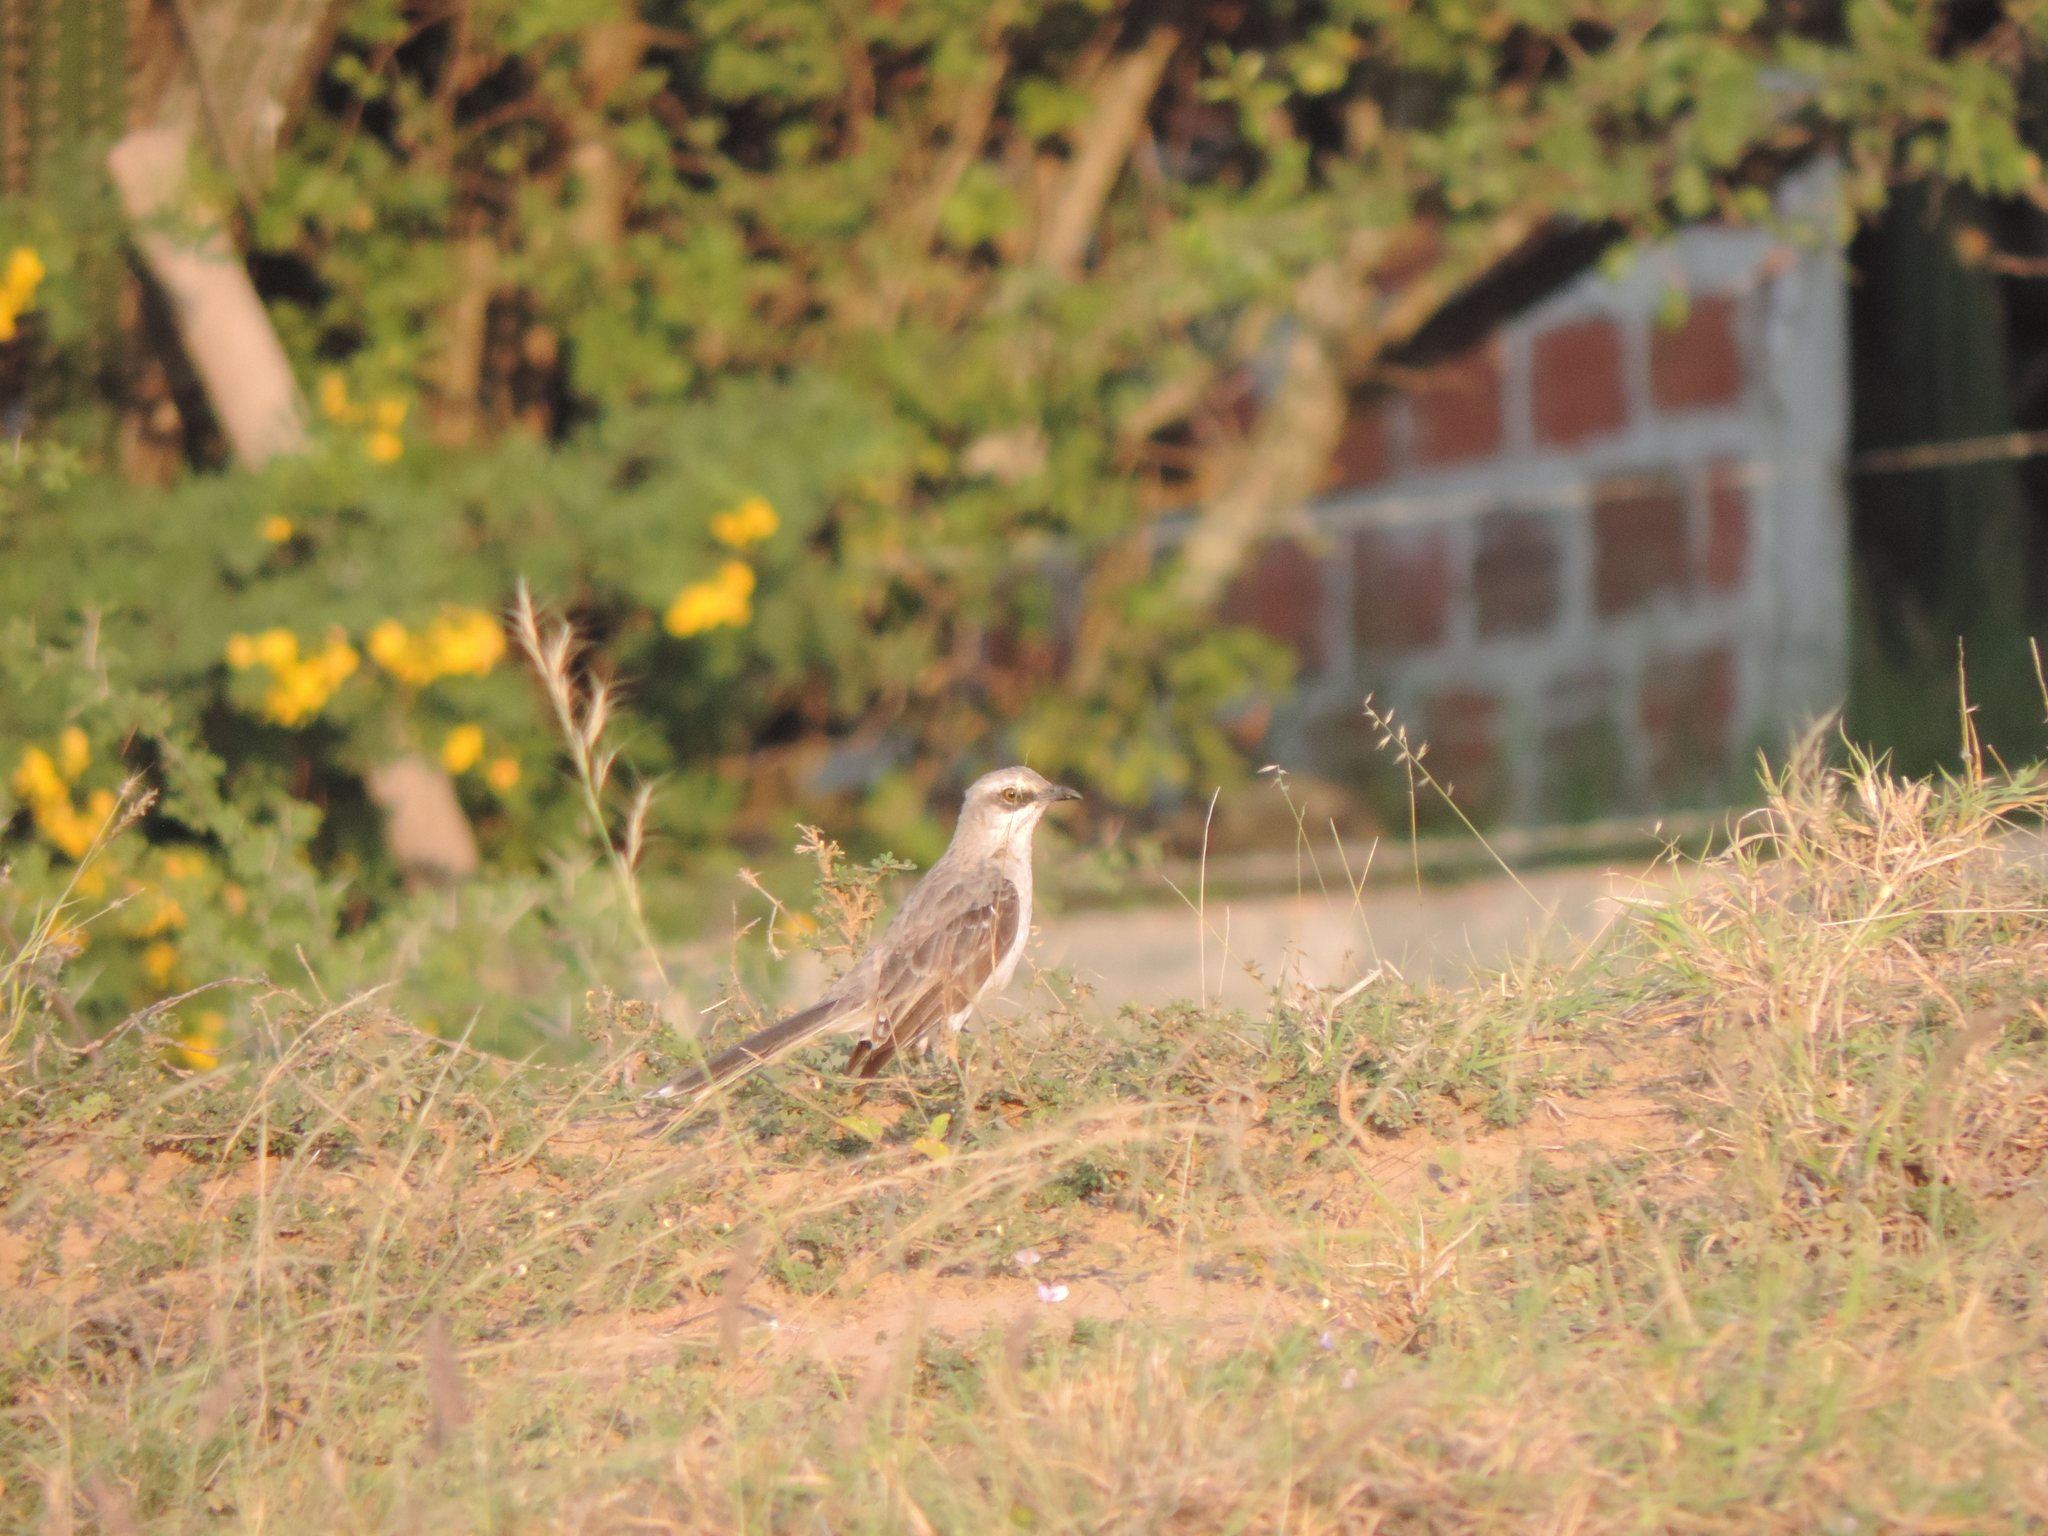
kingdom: Animalia
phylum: Chordata
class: Aves
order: Passeriformes
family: Mimidae
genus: Mimus
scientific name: Mimus gilvus
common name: Tropical mockingbird
